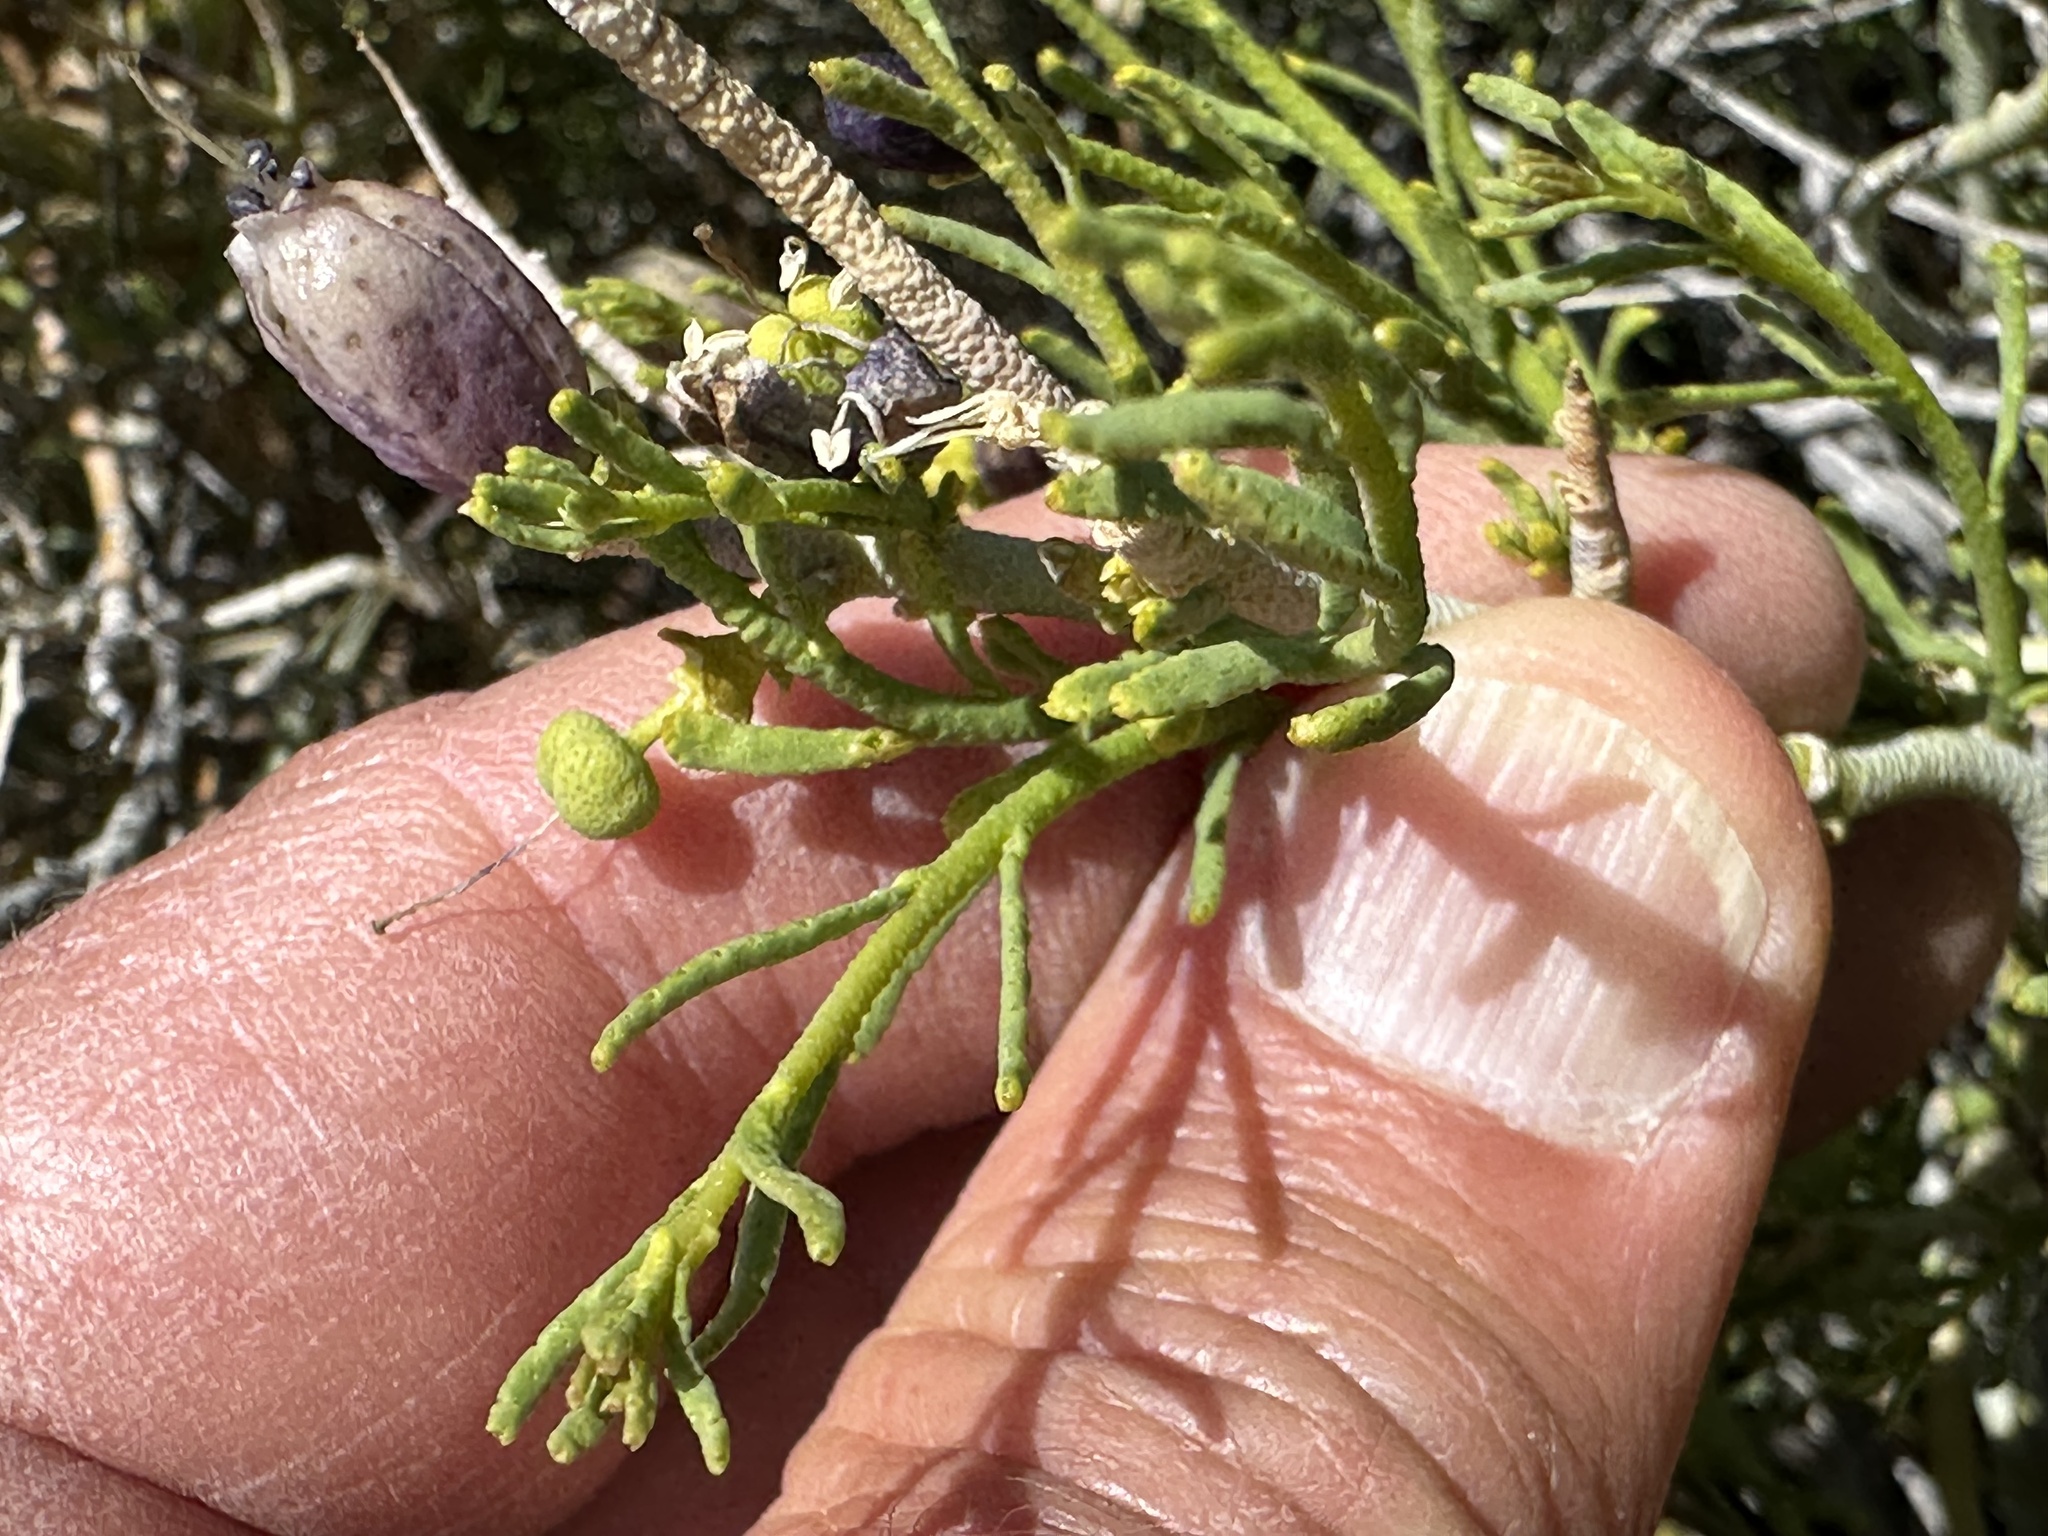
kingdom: Plantae
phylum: Tracheophyta
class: Magnoliopsida
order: Sapindales
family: Rutaceae
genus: Thamnosma
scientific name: Thamnosma montana
